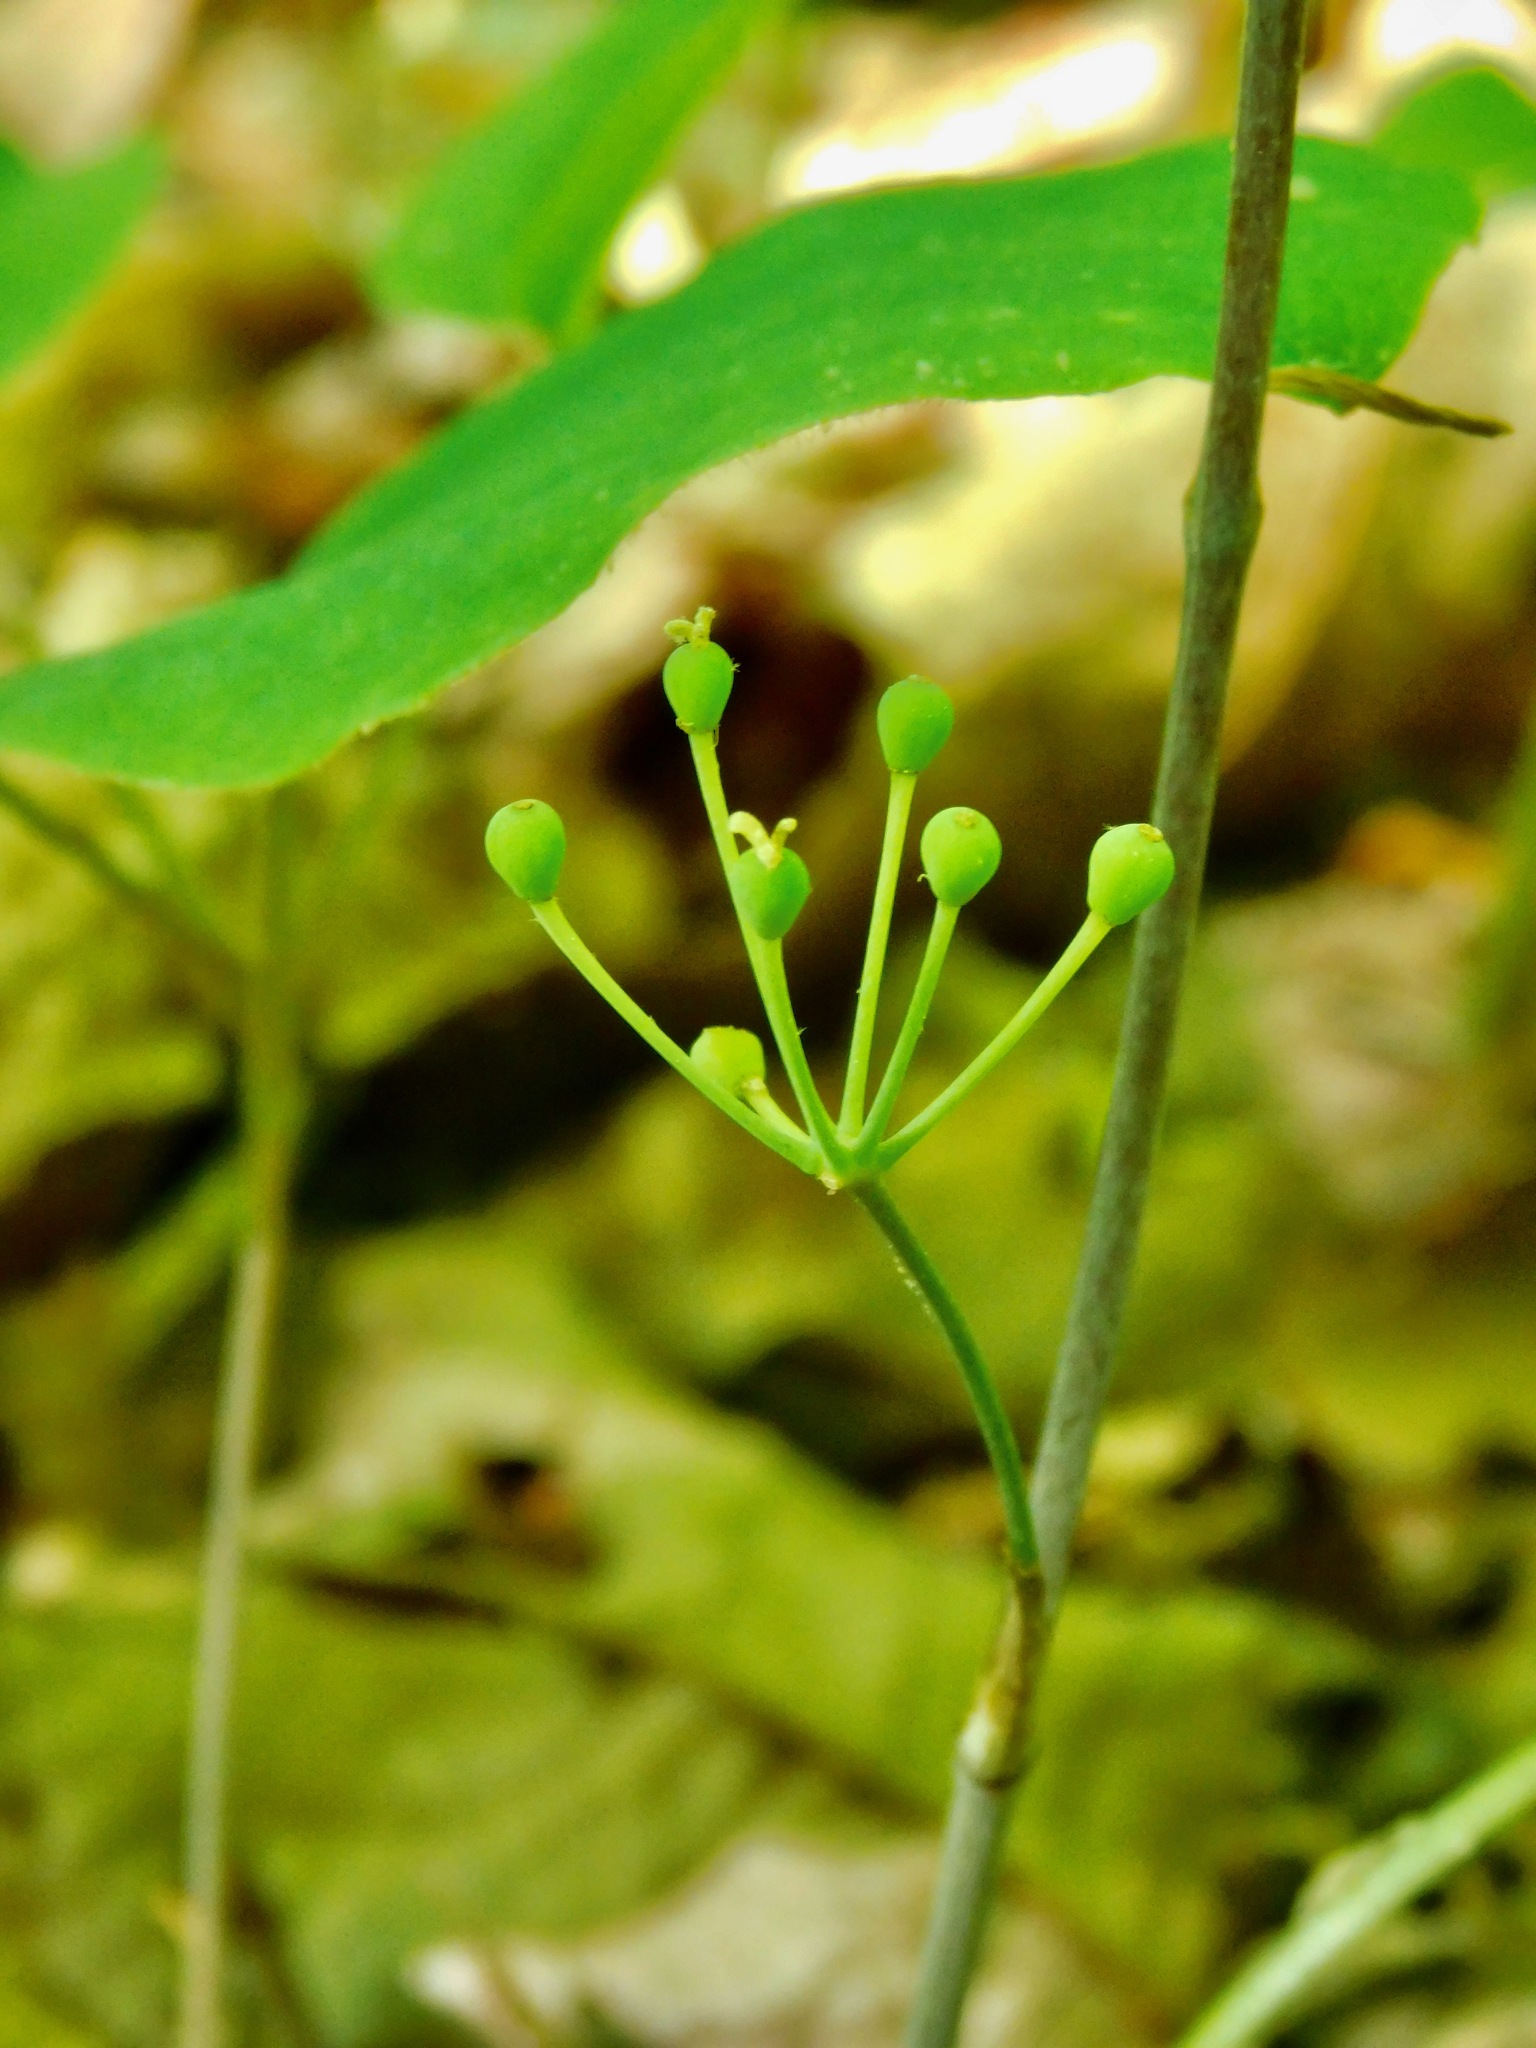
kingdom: Plantae
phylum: Tracheophyta
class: Liliopsida
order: Liliales
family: Smilacaceae
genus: Smilax
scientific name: Smilax hugeri
